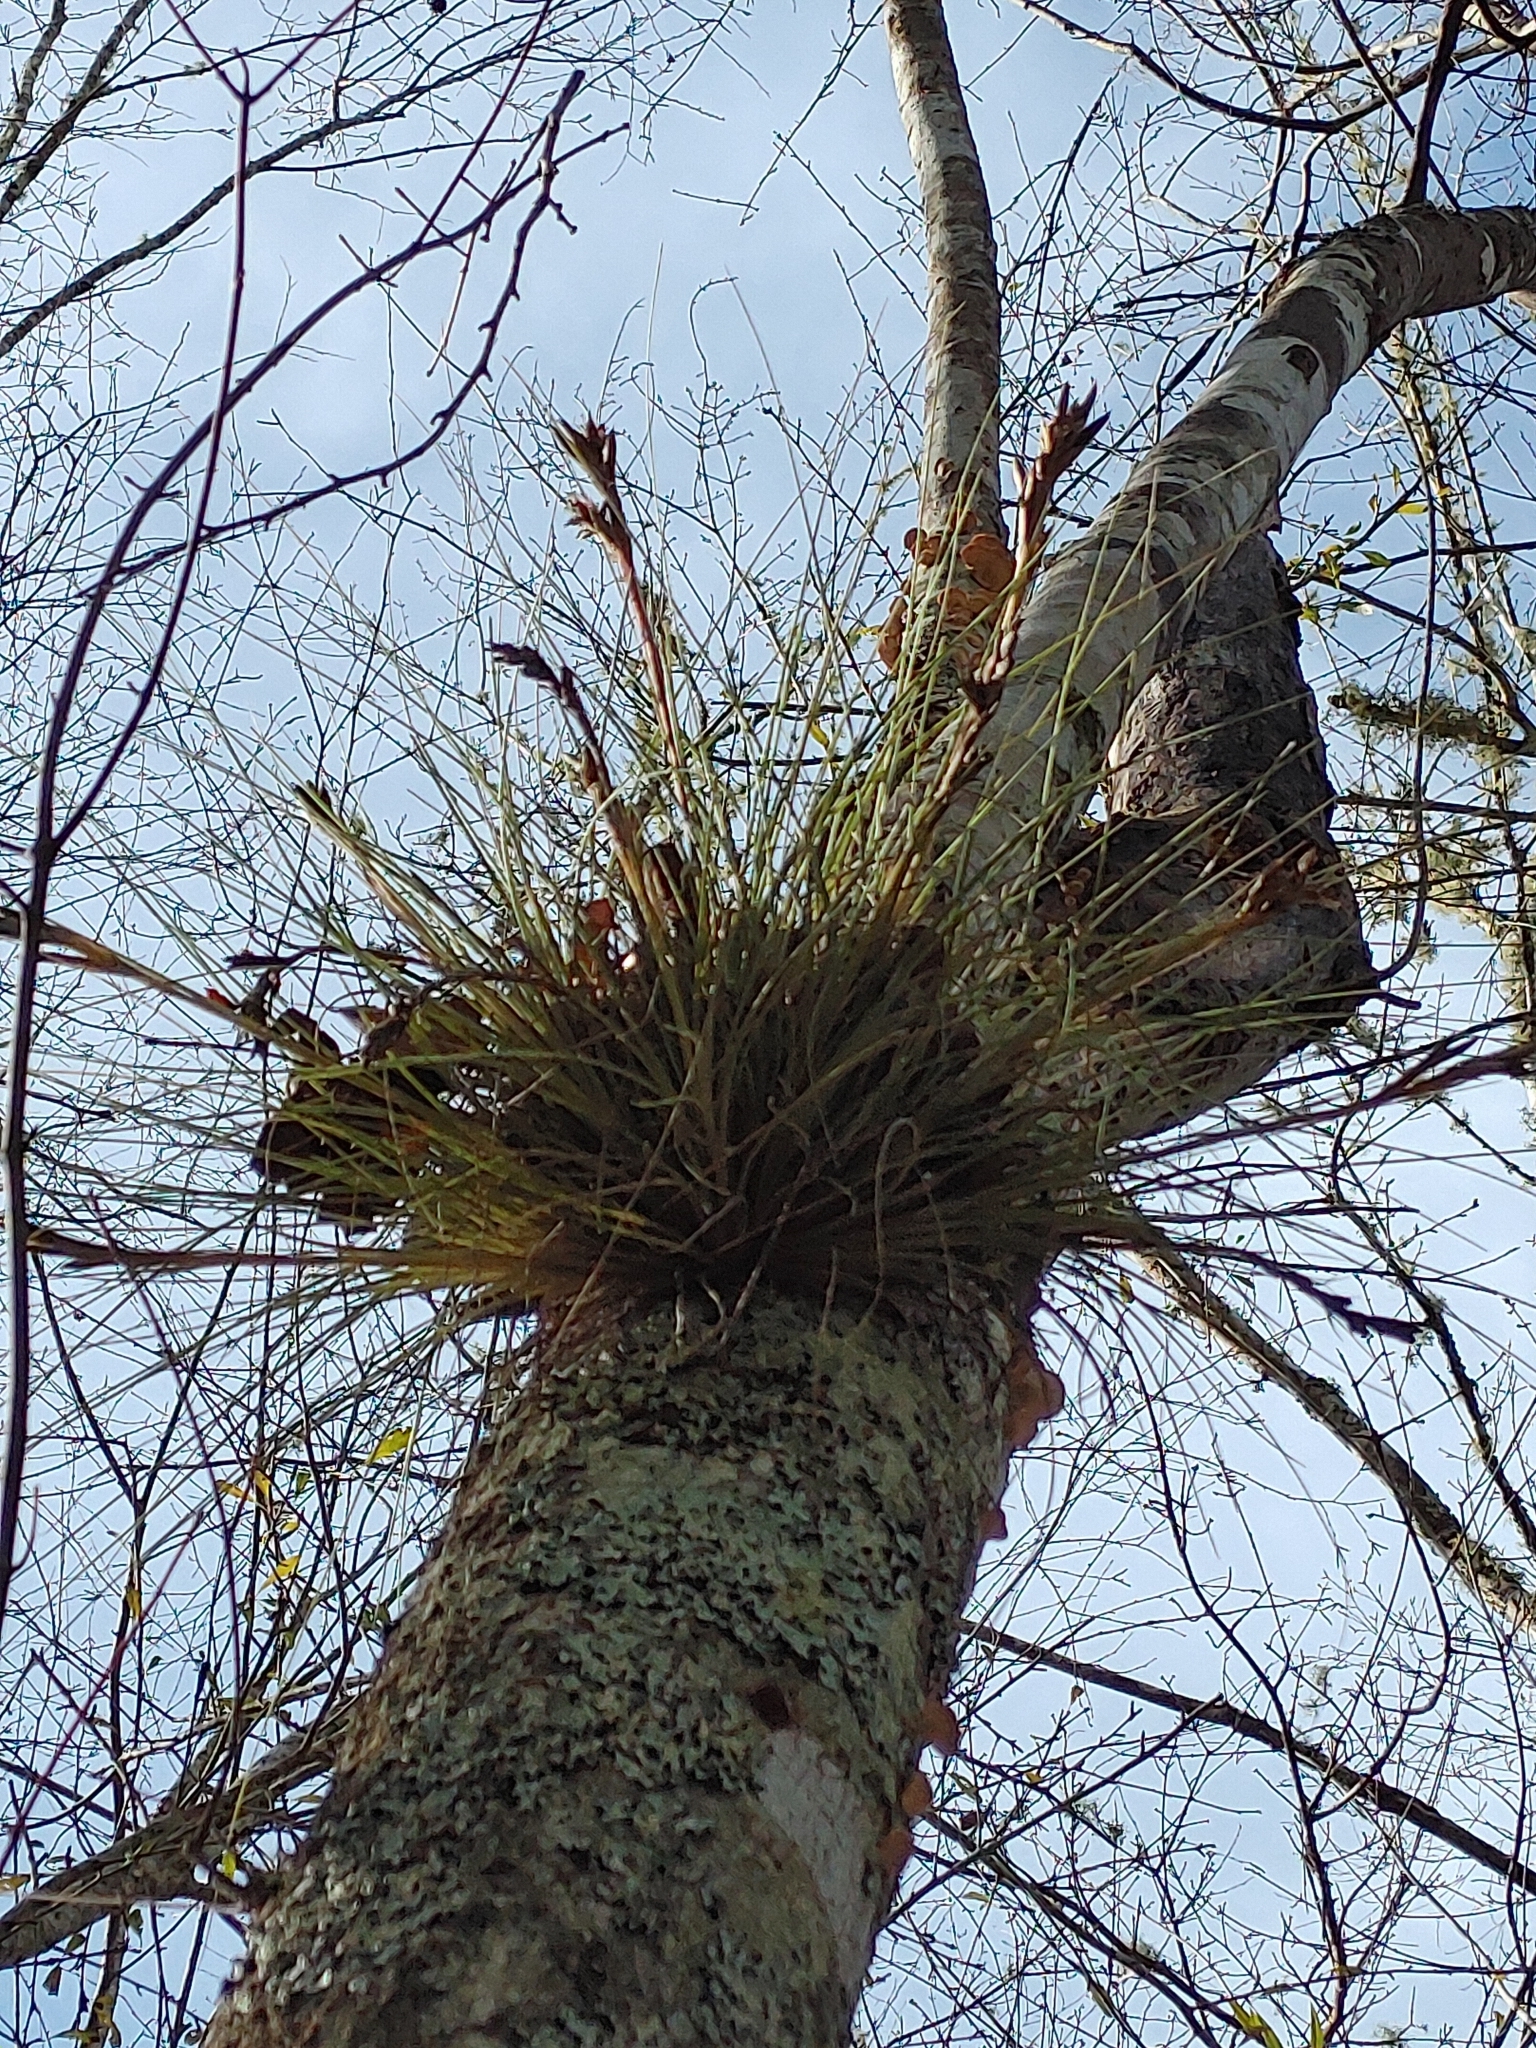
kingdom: Plantae
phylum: Tracheophyta
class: Liliopsida
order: Poales
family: Bromeliaceae
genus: Tillandsia
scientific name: Tillandsia bartramii
